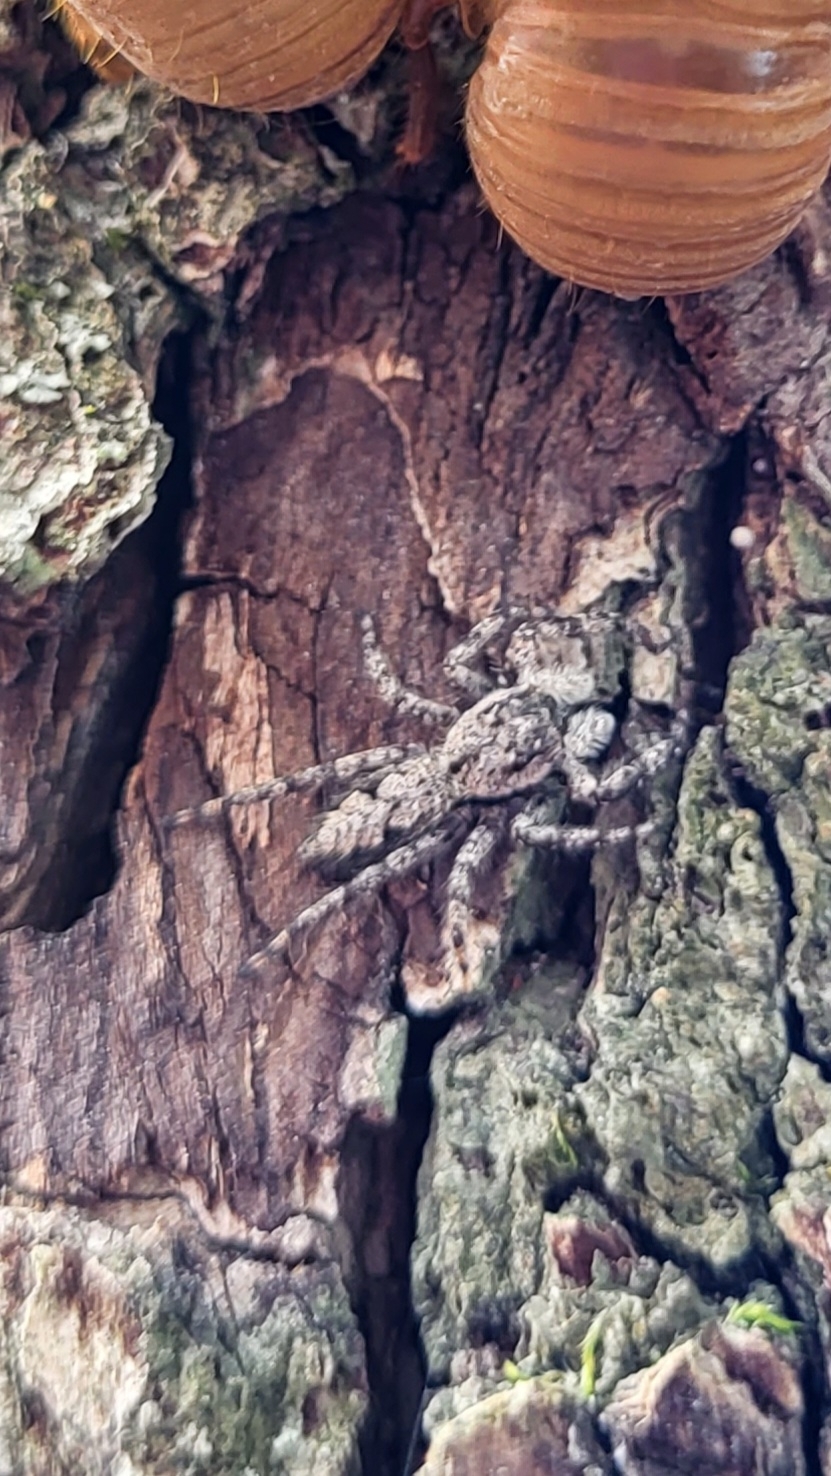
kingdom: Animalia
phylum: Arthropoda
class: Arachnida
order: Araneae
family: Salticidae
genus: Platycryptus
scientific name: Platycryptus undatus
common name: Tan jumping spider
